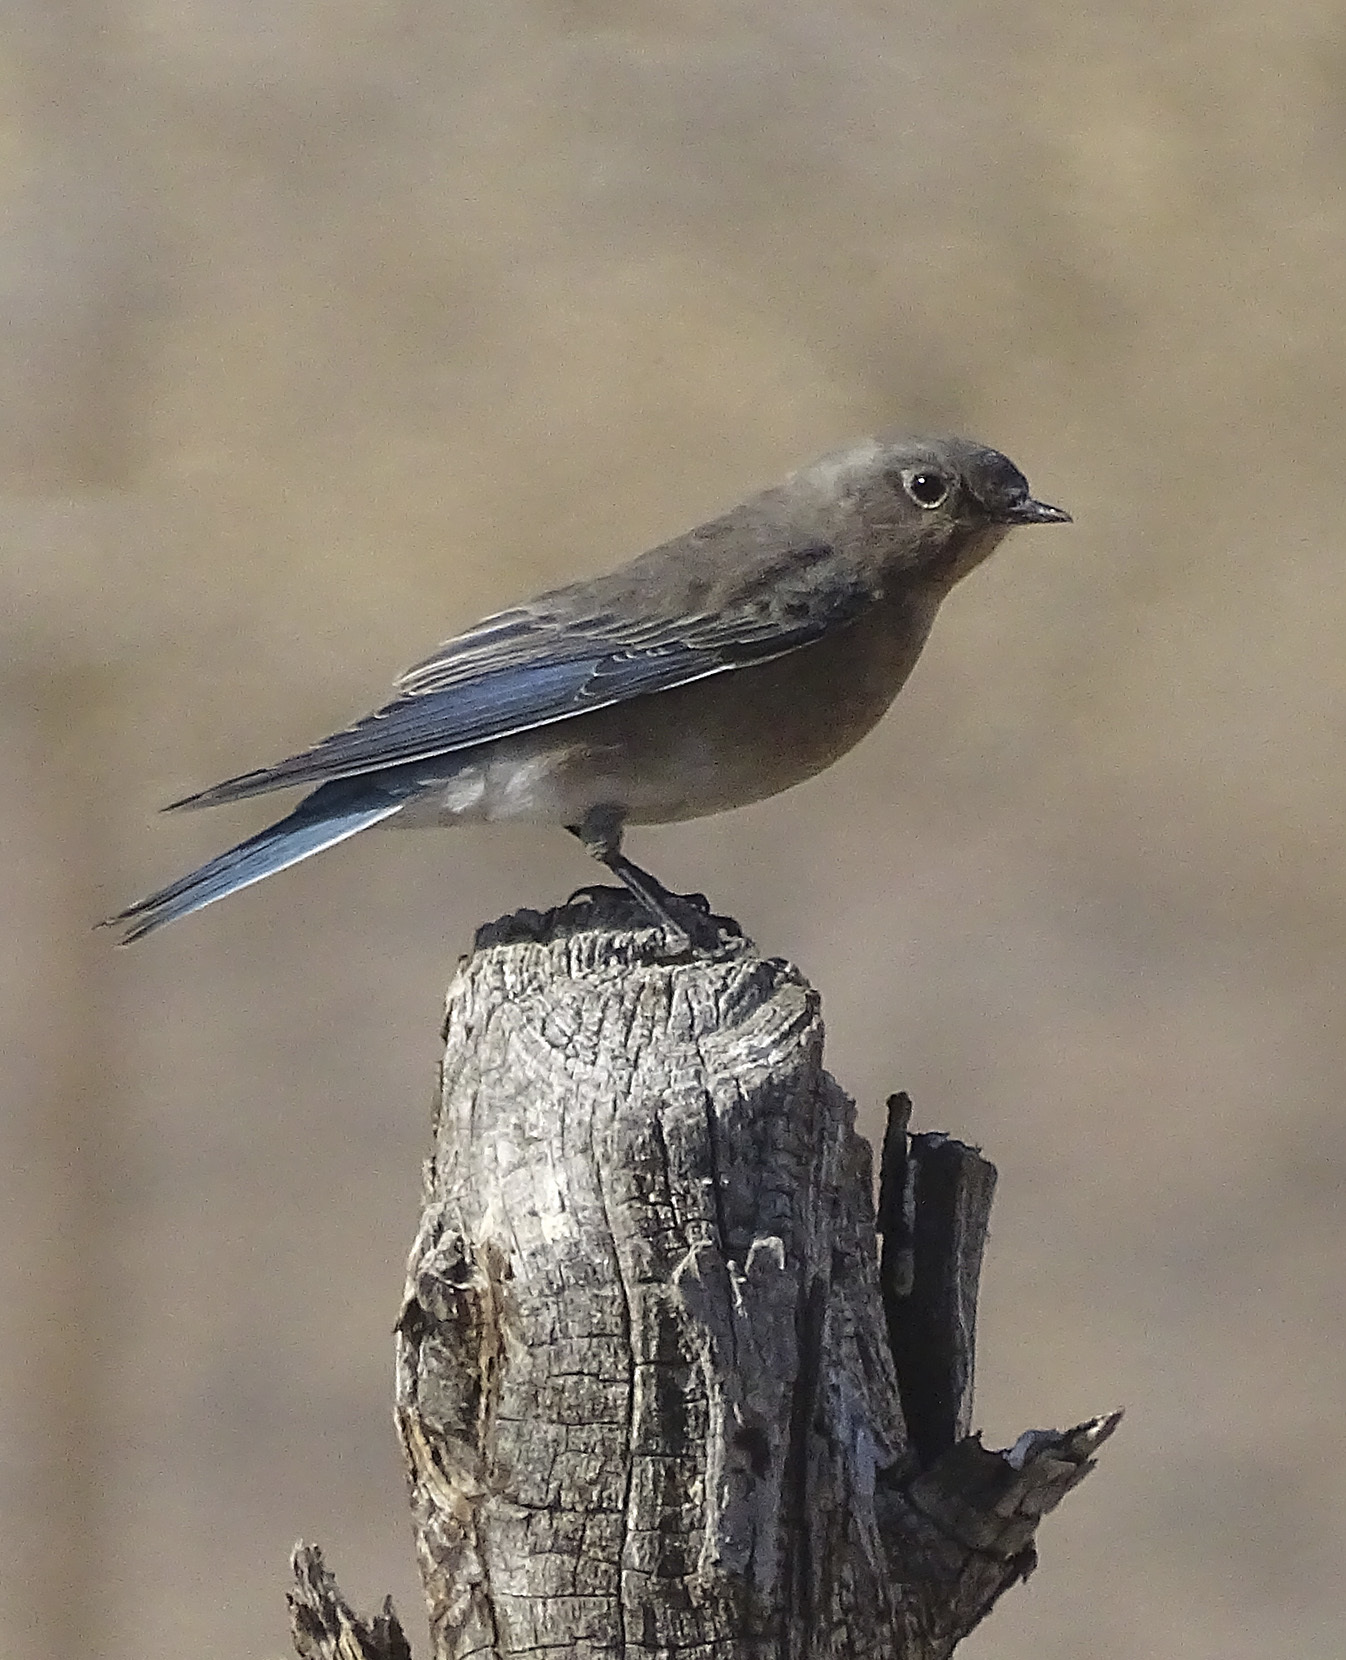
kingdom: Animalia
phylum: Chordata
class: Aves
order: Passeriformes
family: Turdidae
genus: Sialia
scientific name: Sialia currucoides
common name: Mountain bluebird
